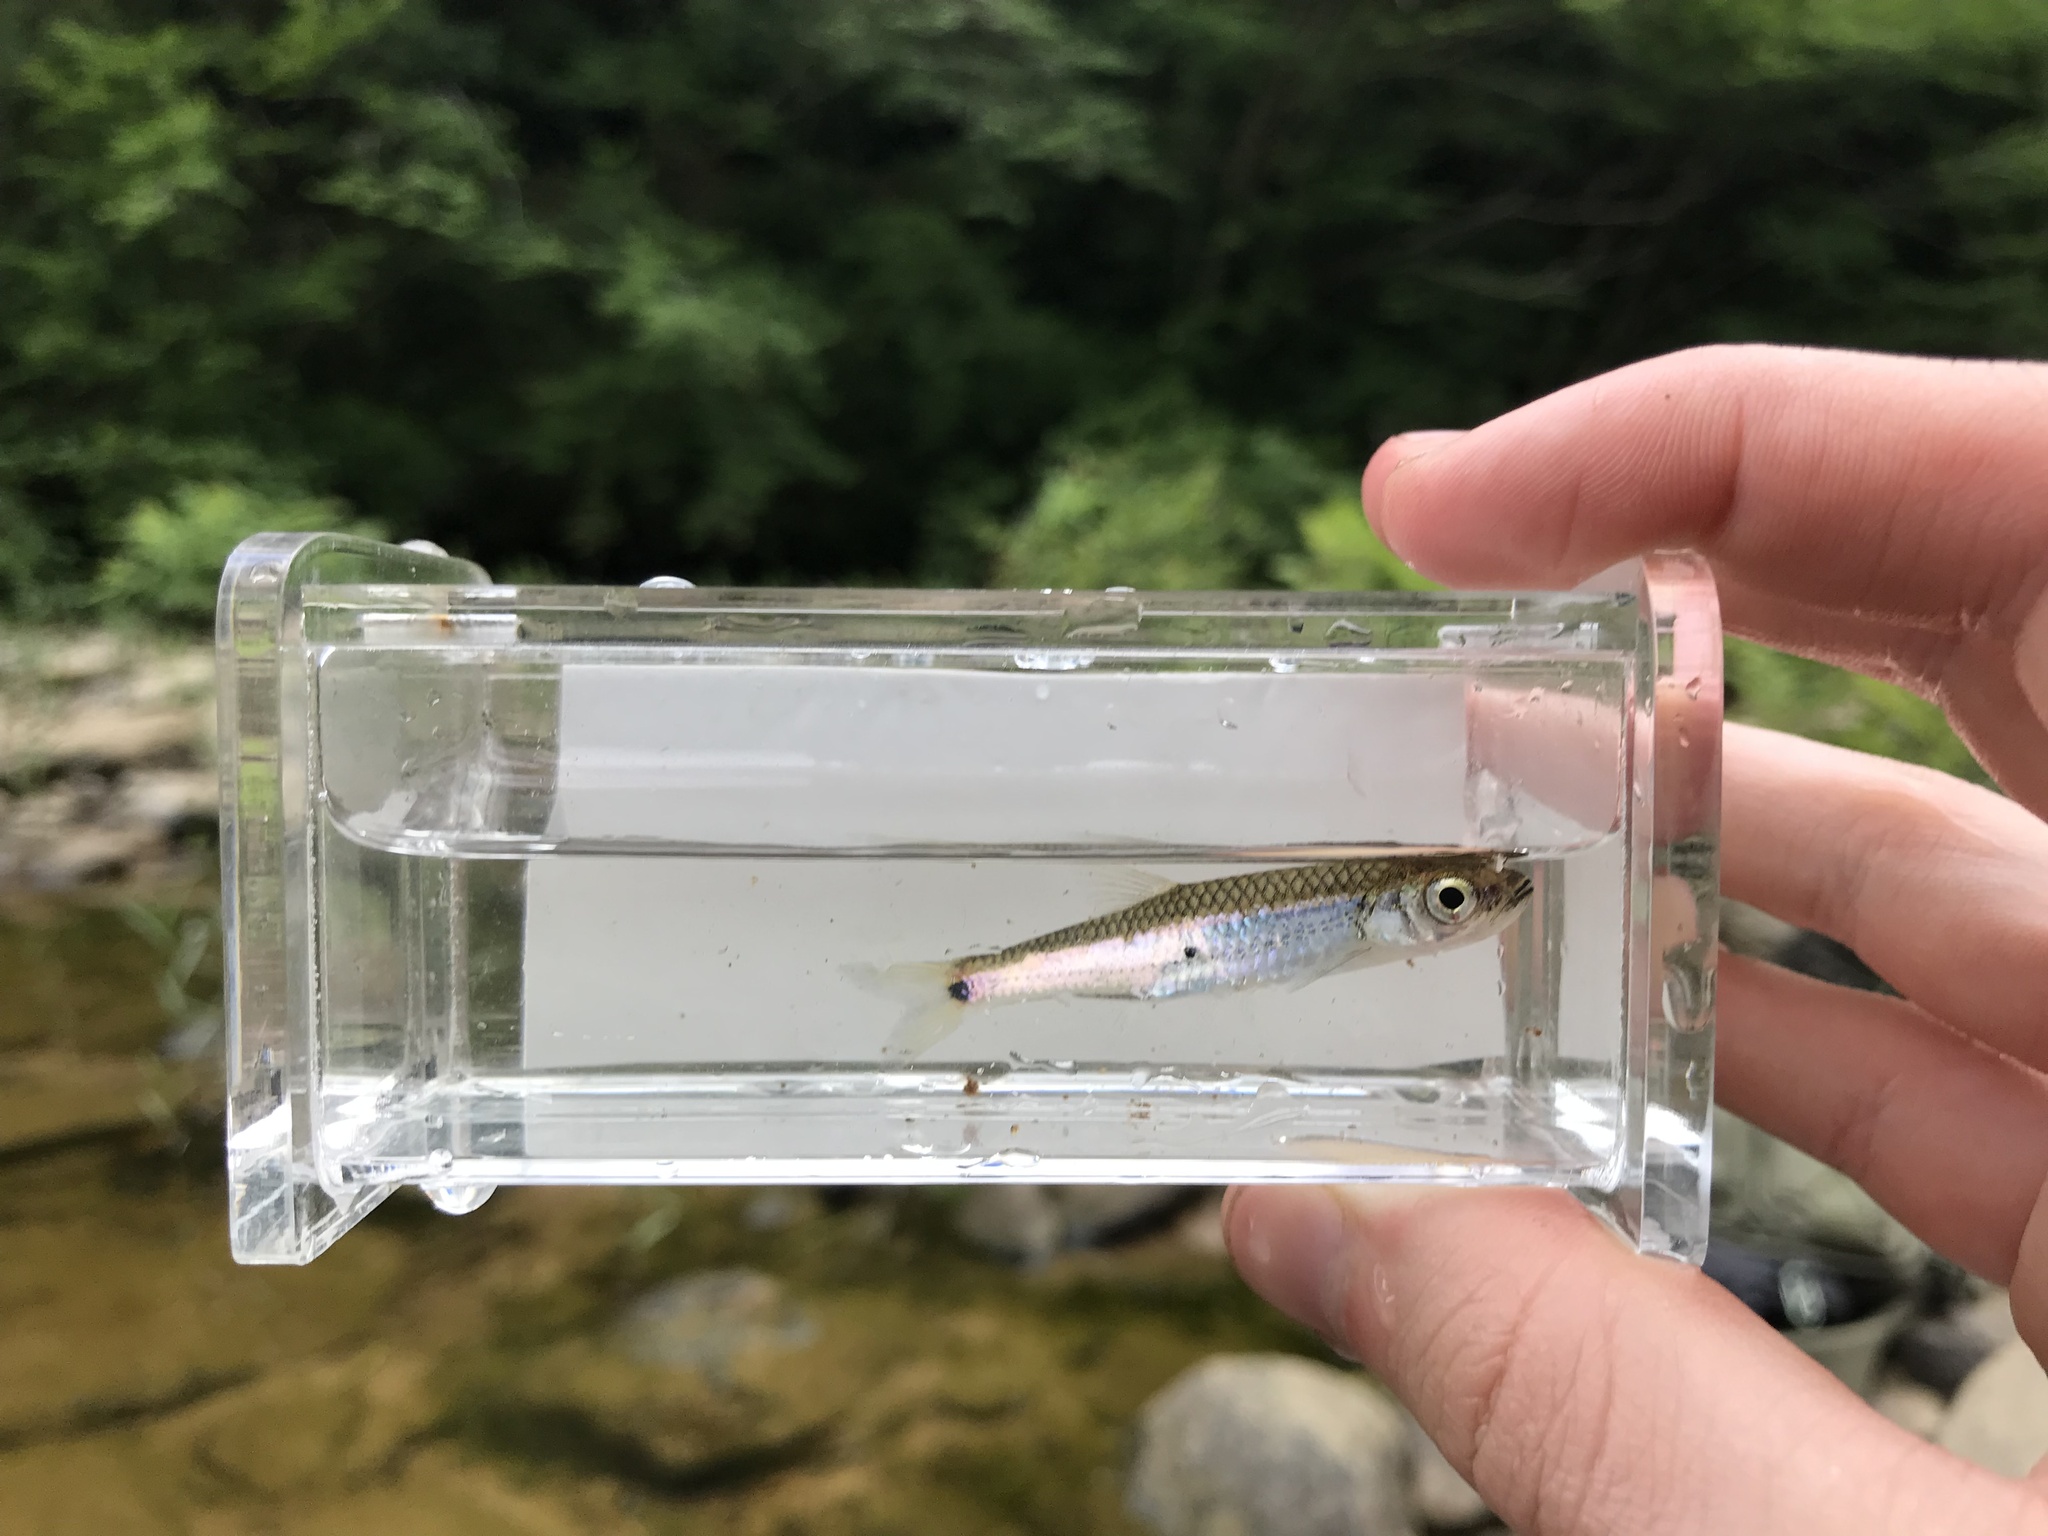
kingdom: Animalia
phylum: Chordata
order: Cypriniformes
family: Cyprinidae
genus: Notropis
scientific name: Notropis stilbius
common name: Silverstripe shiner
